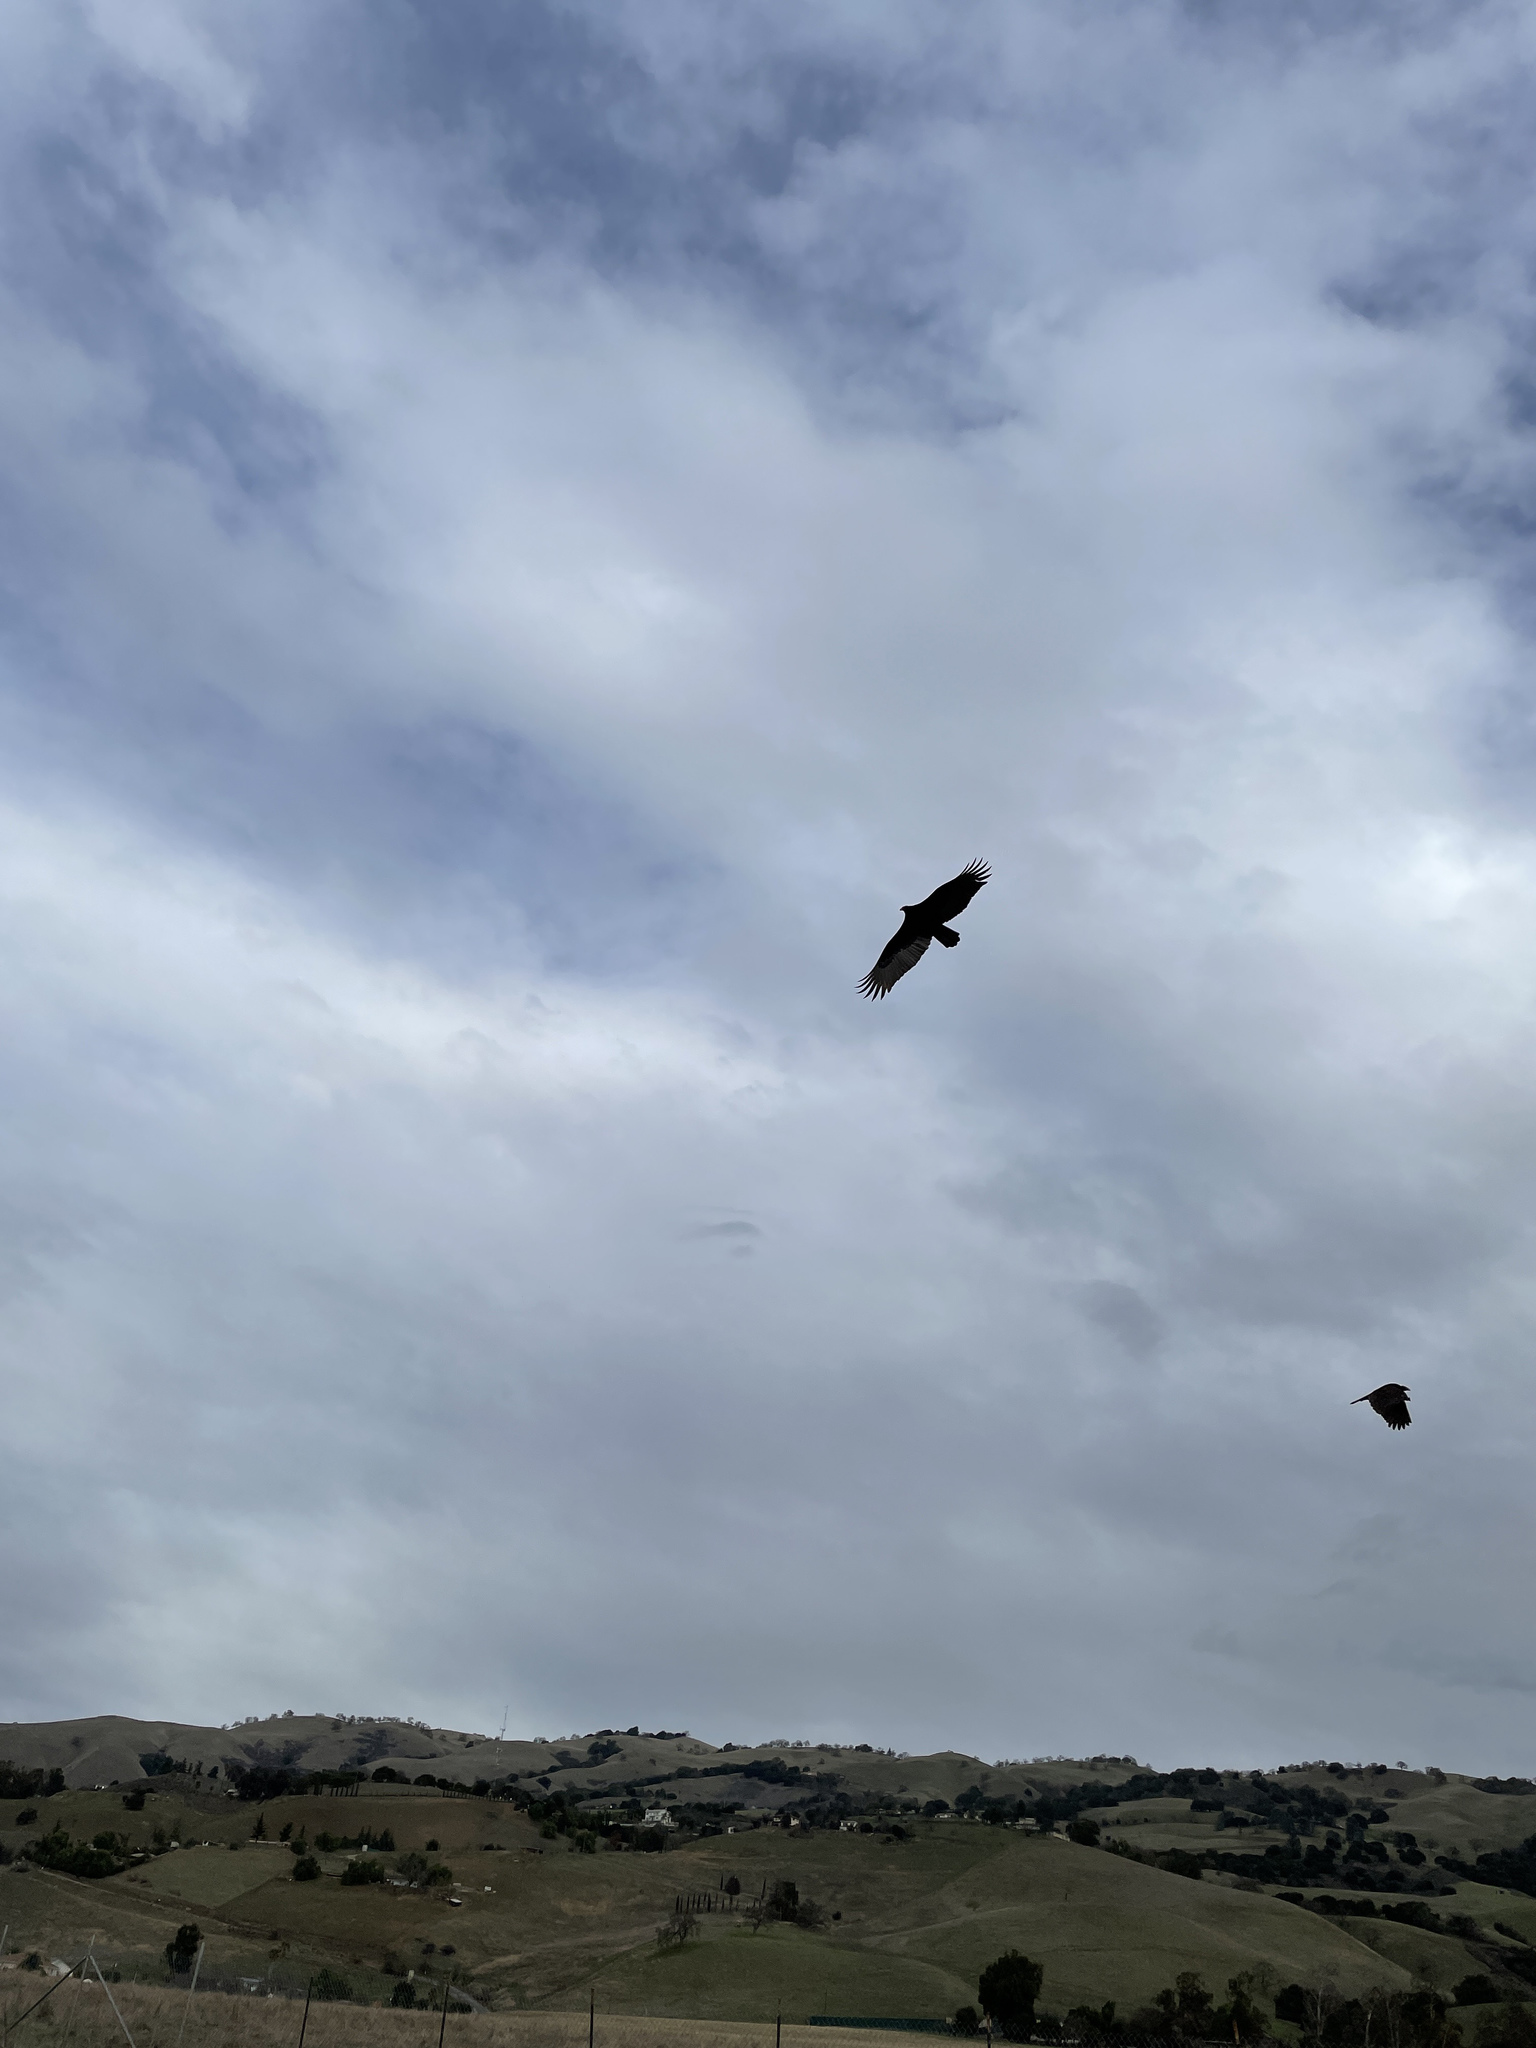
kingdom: Animalia
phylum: Chordata
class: Aves
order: Accipitriformes
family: Cathartidae
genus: Cathartes
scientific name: Cathartes aura
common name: Turkey vulture
